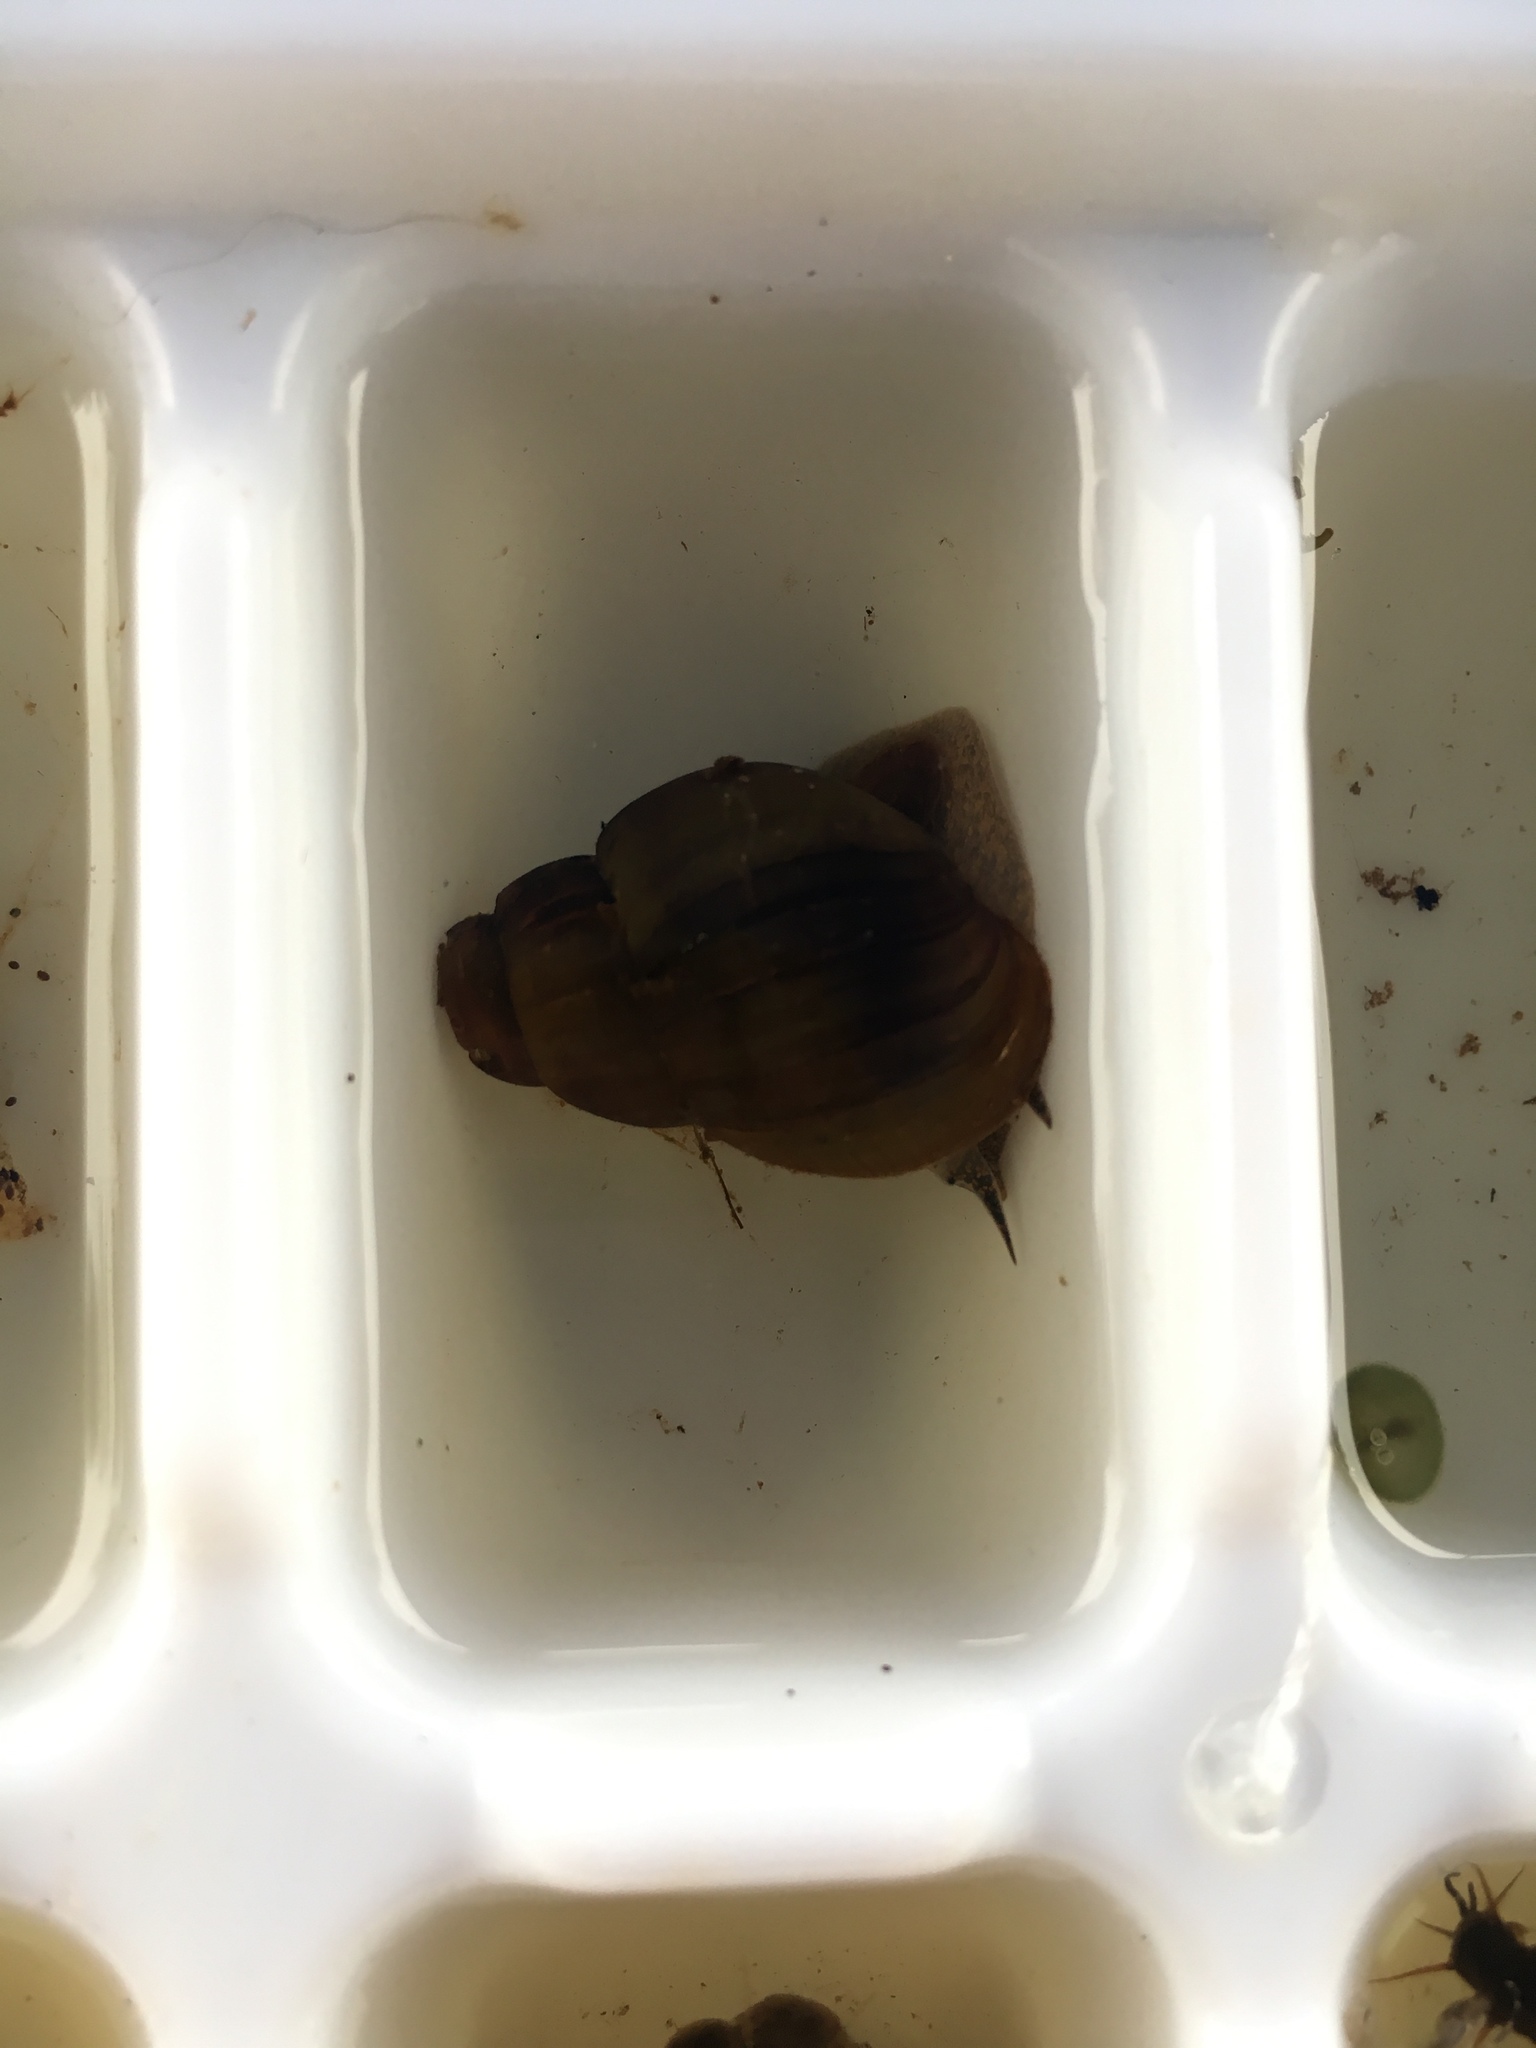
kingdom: Animalia
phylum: Mollusca
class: Gastropoda
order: Architaenioglossa
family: Viviparidae
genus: Cipangopaludina
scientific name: Cipangopaludina chinensis
